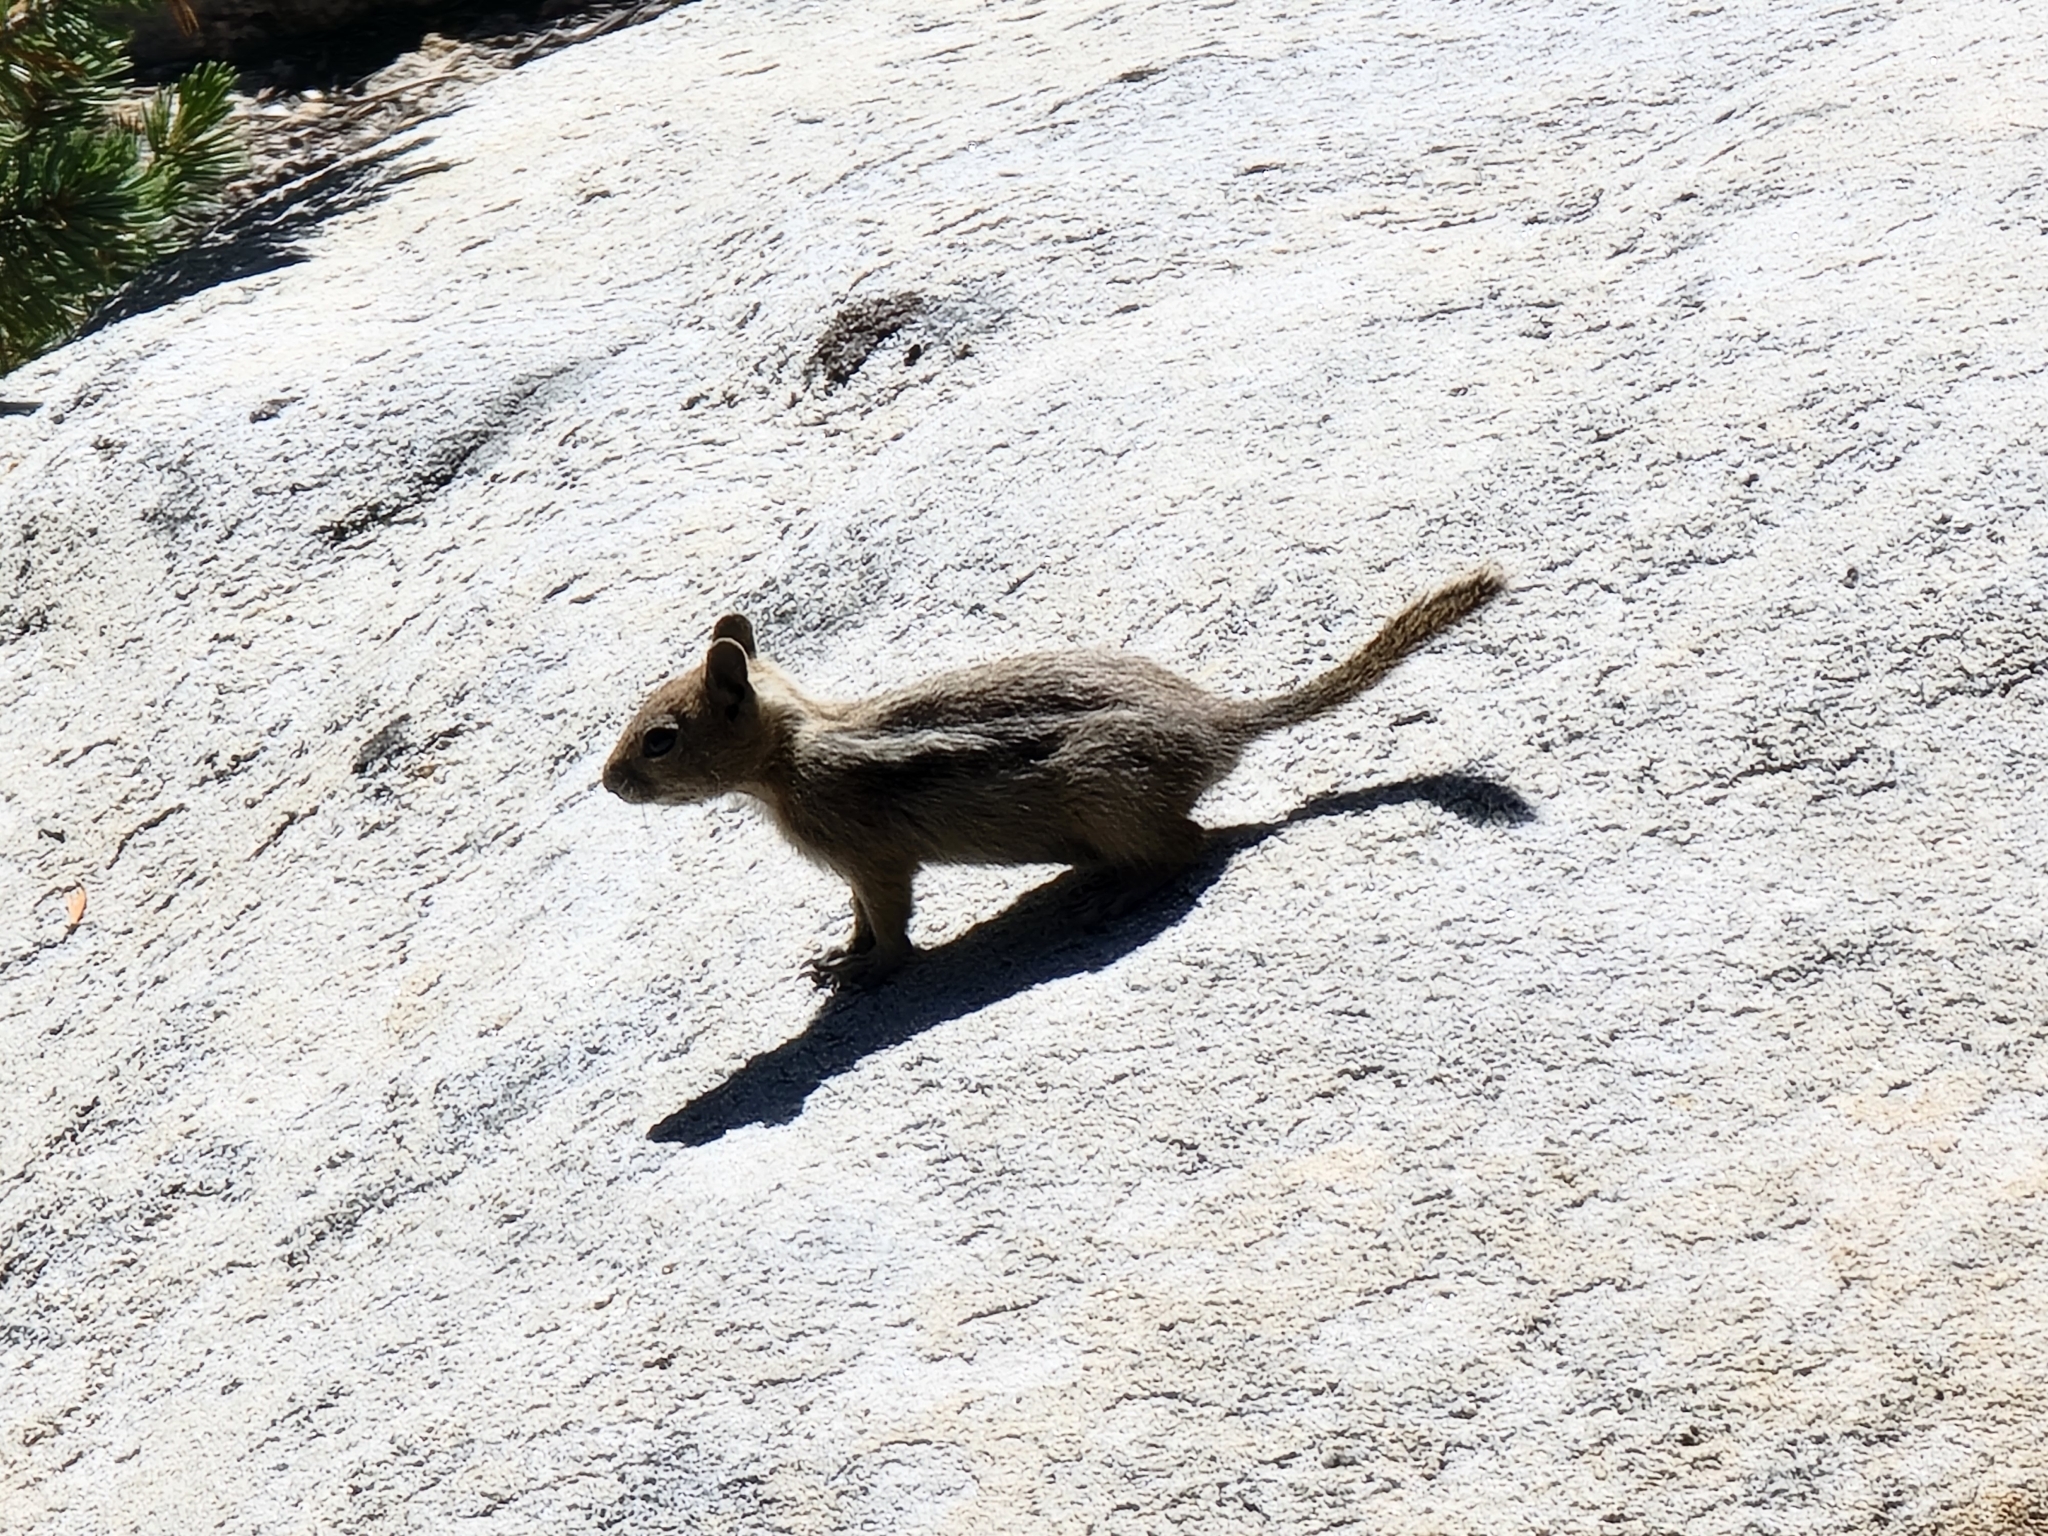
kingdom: Animalia
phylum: Chordata
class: Mammalia
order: Rodentia
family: Sciuridae
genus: Callospermophilus
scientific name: Callospermophilus lateralis
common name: Golden-mantled ground squirrel
